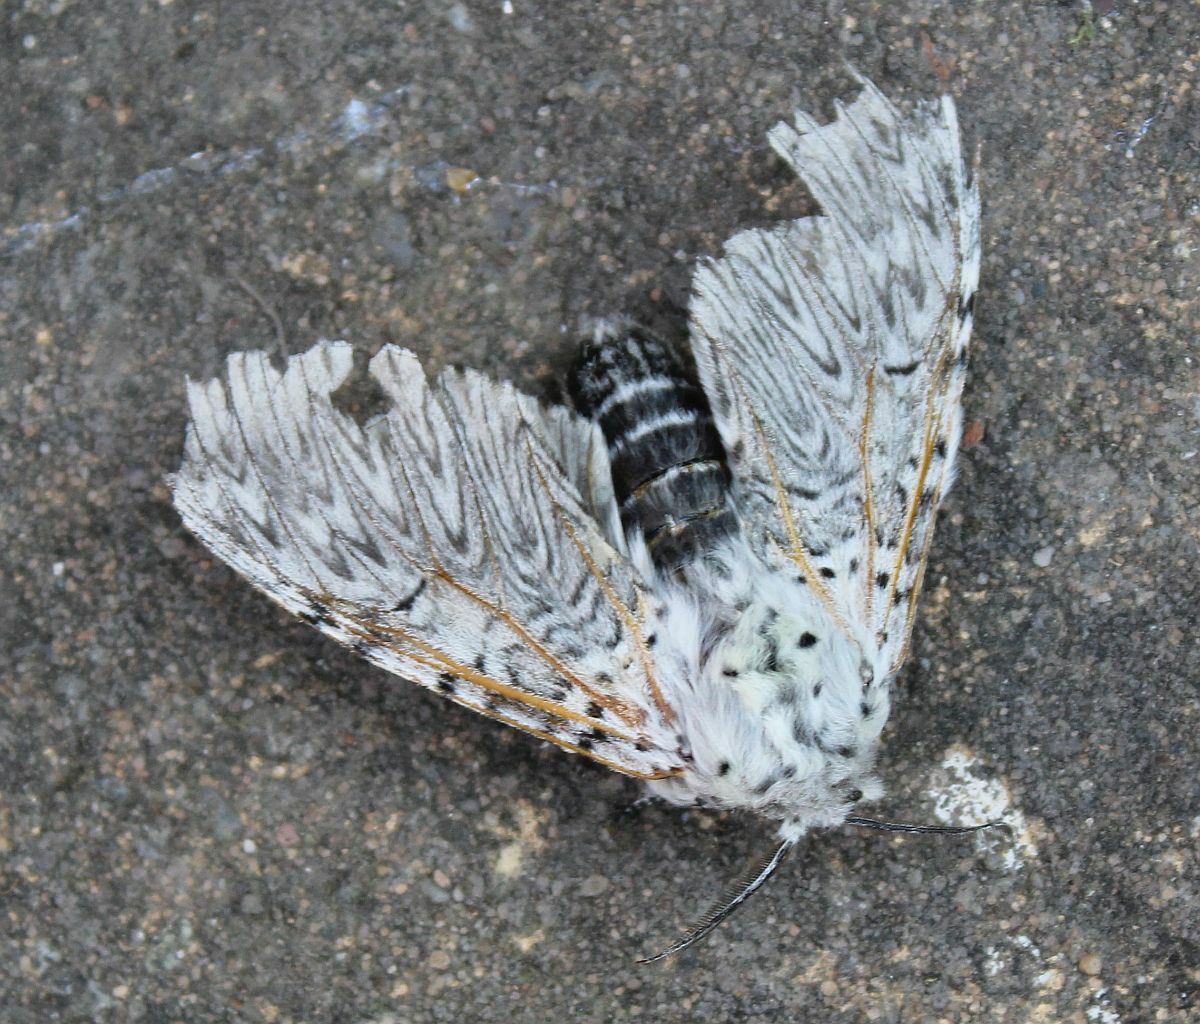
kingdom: Animalia
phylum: Arthropoda
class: Insecta
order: Lepidoptera
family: Notodontidae
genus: Cerura
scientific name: Cerura vinula
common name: Puss moth
